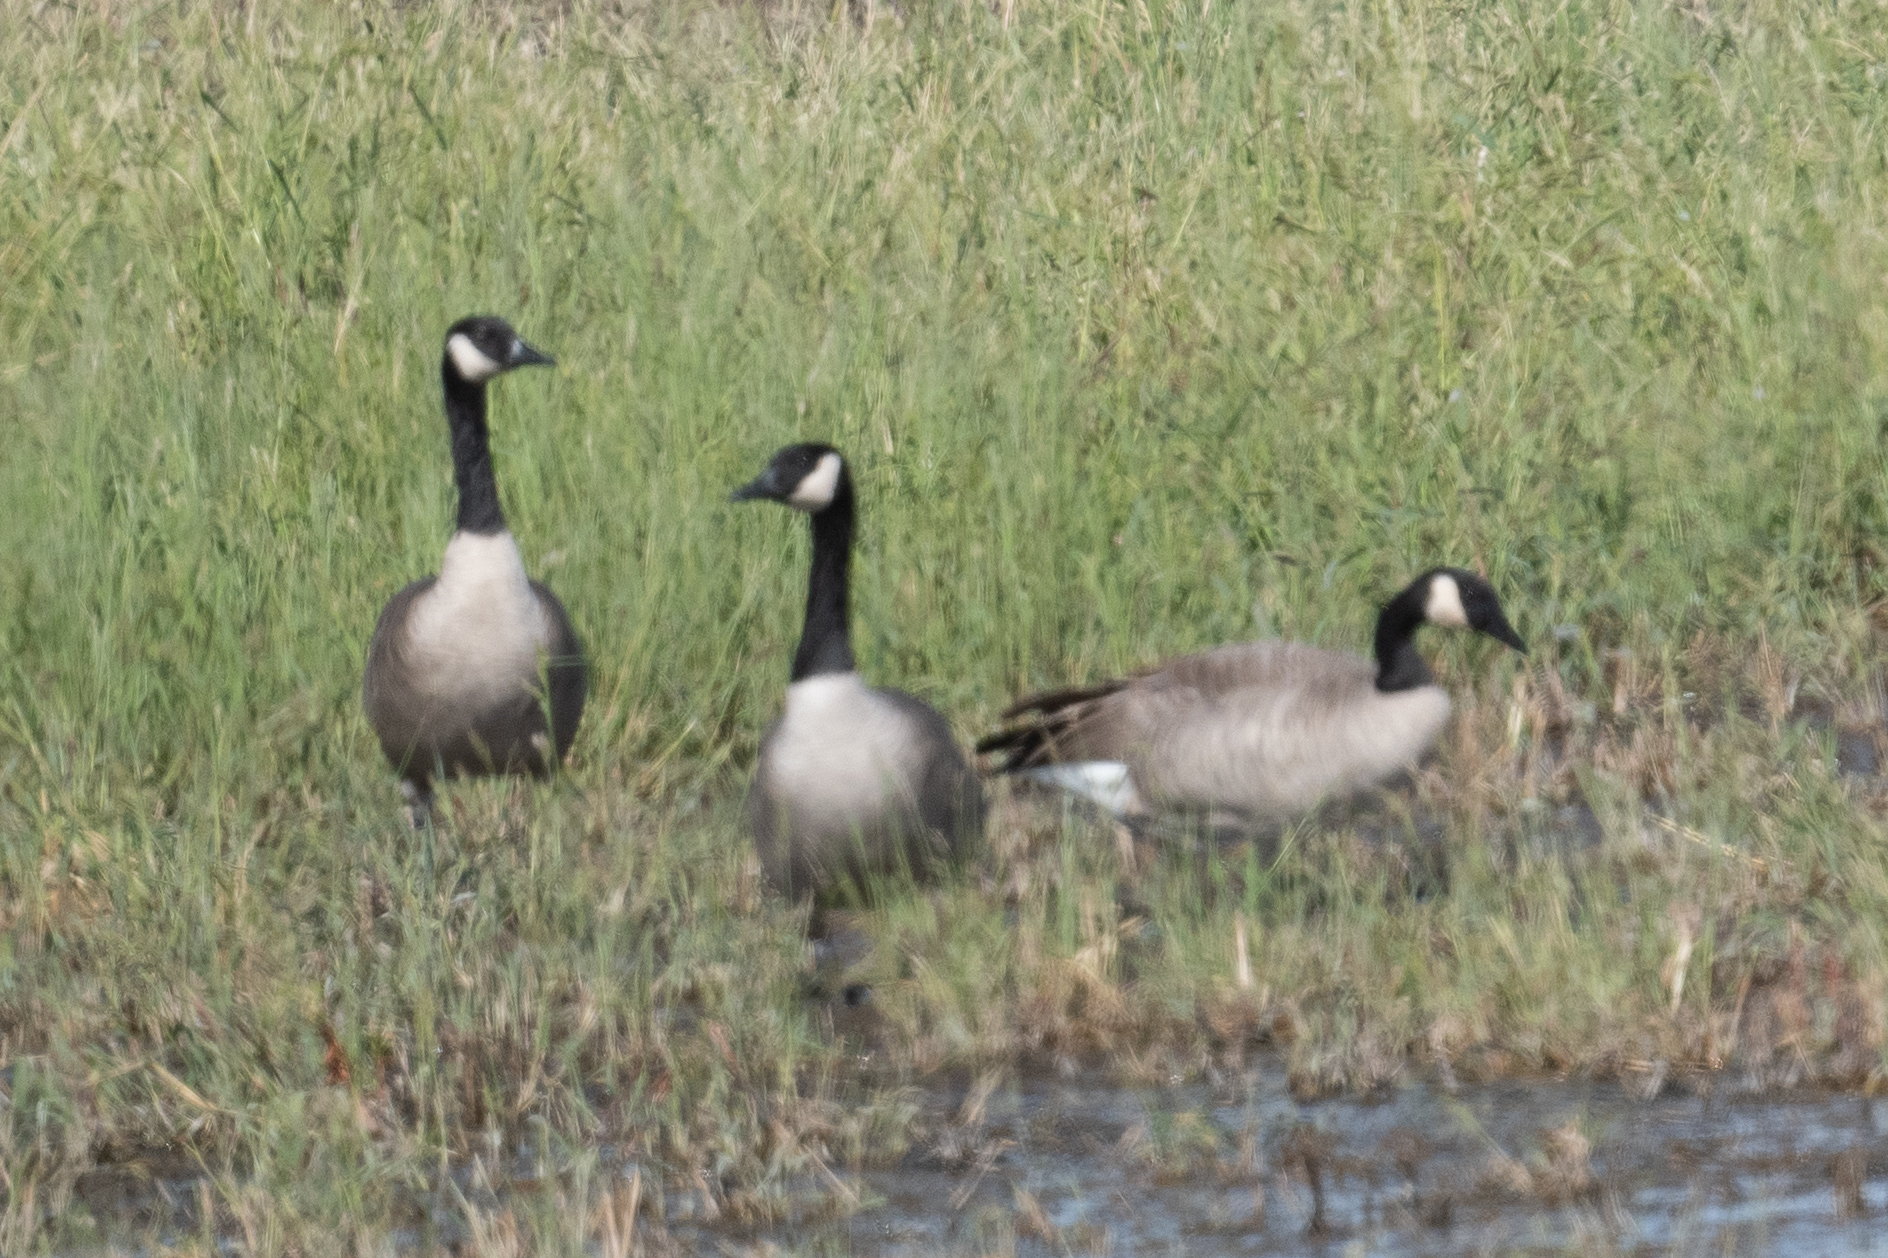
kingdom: Animalia
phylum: Chordata
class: Aves
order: Anseriformes
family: Anatidae
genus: Branta
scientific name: Branta canadensis
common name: Canada goose
